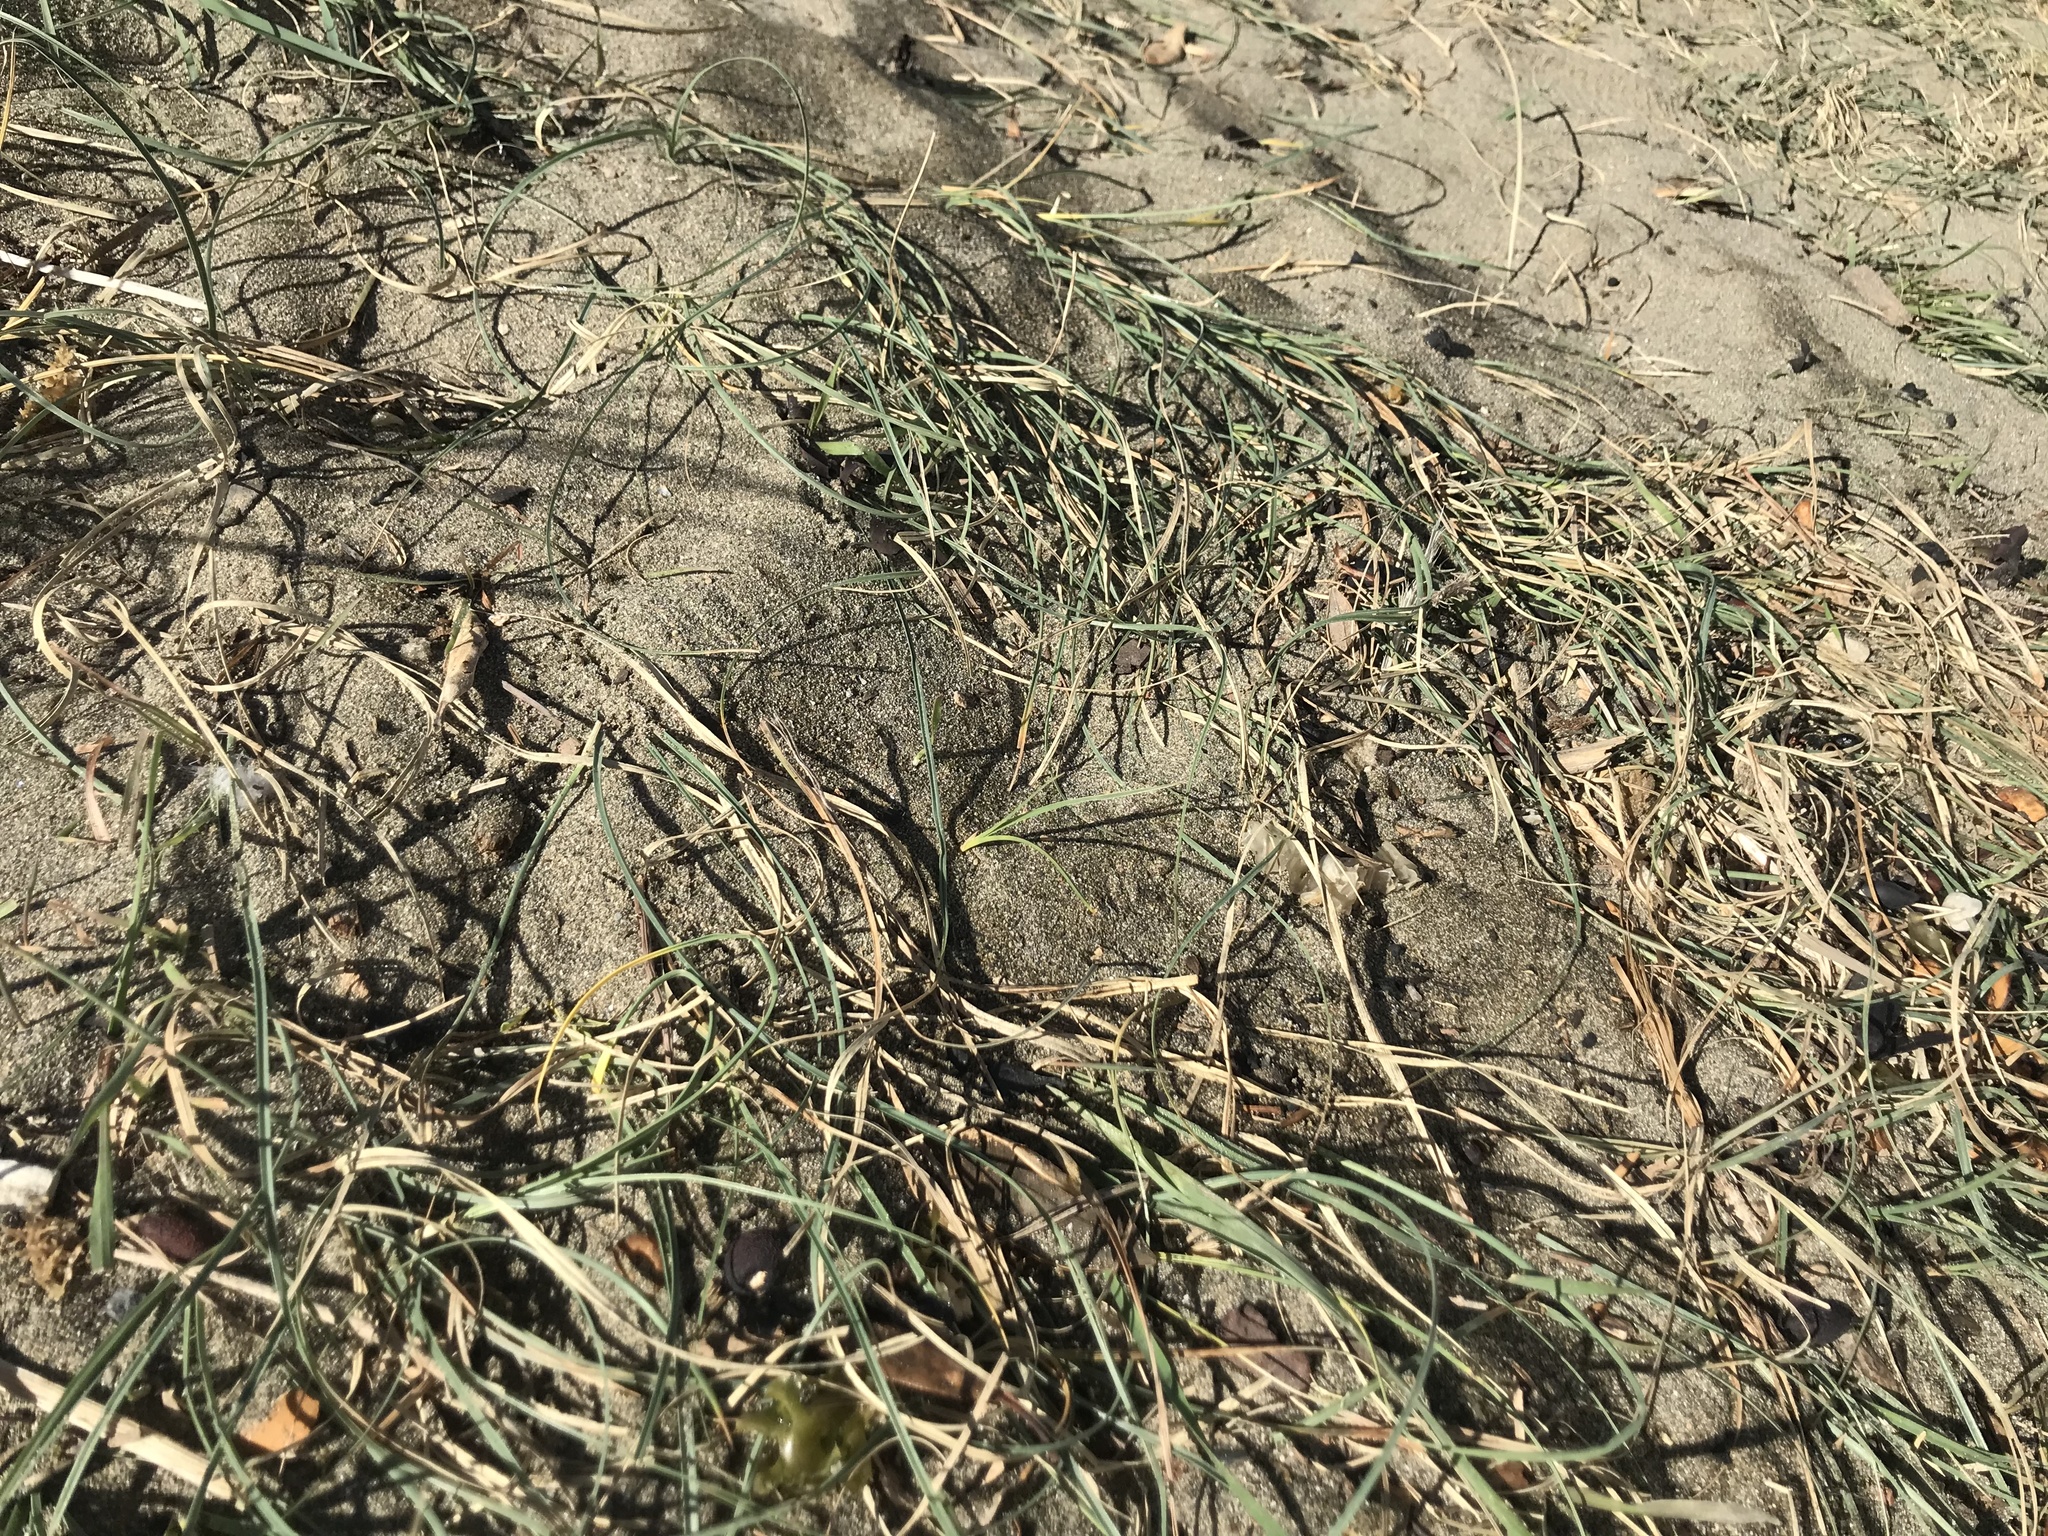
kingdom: Plantae
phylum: Tracheophyta
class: Liliopsida
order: Poales
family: Cyperaceae
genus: Carex
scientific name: Carex pumila
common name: Dwarf sedge
